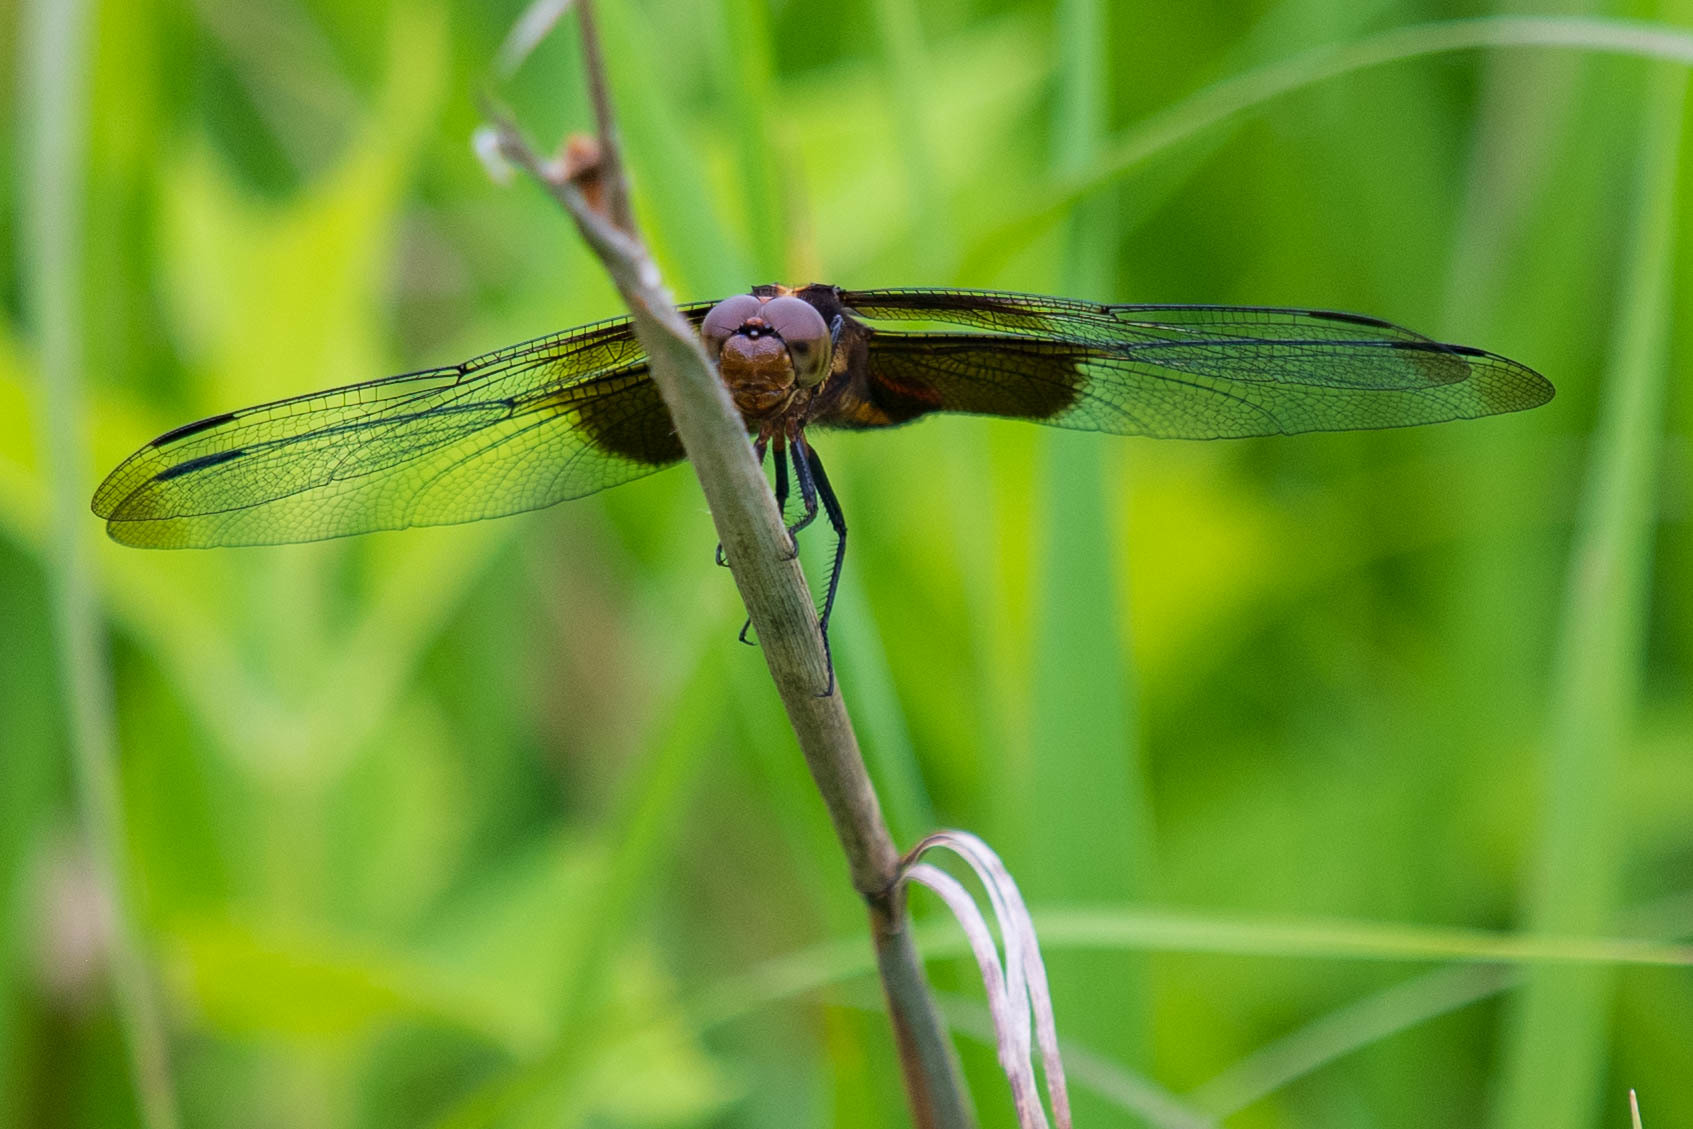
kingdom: Animalia
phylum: Arthropoda
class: Insecta
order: Odonata
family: Libellulidae
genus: Libellula
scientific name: Libellula luctuosa
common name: Widow skimmer
